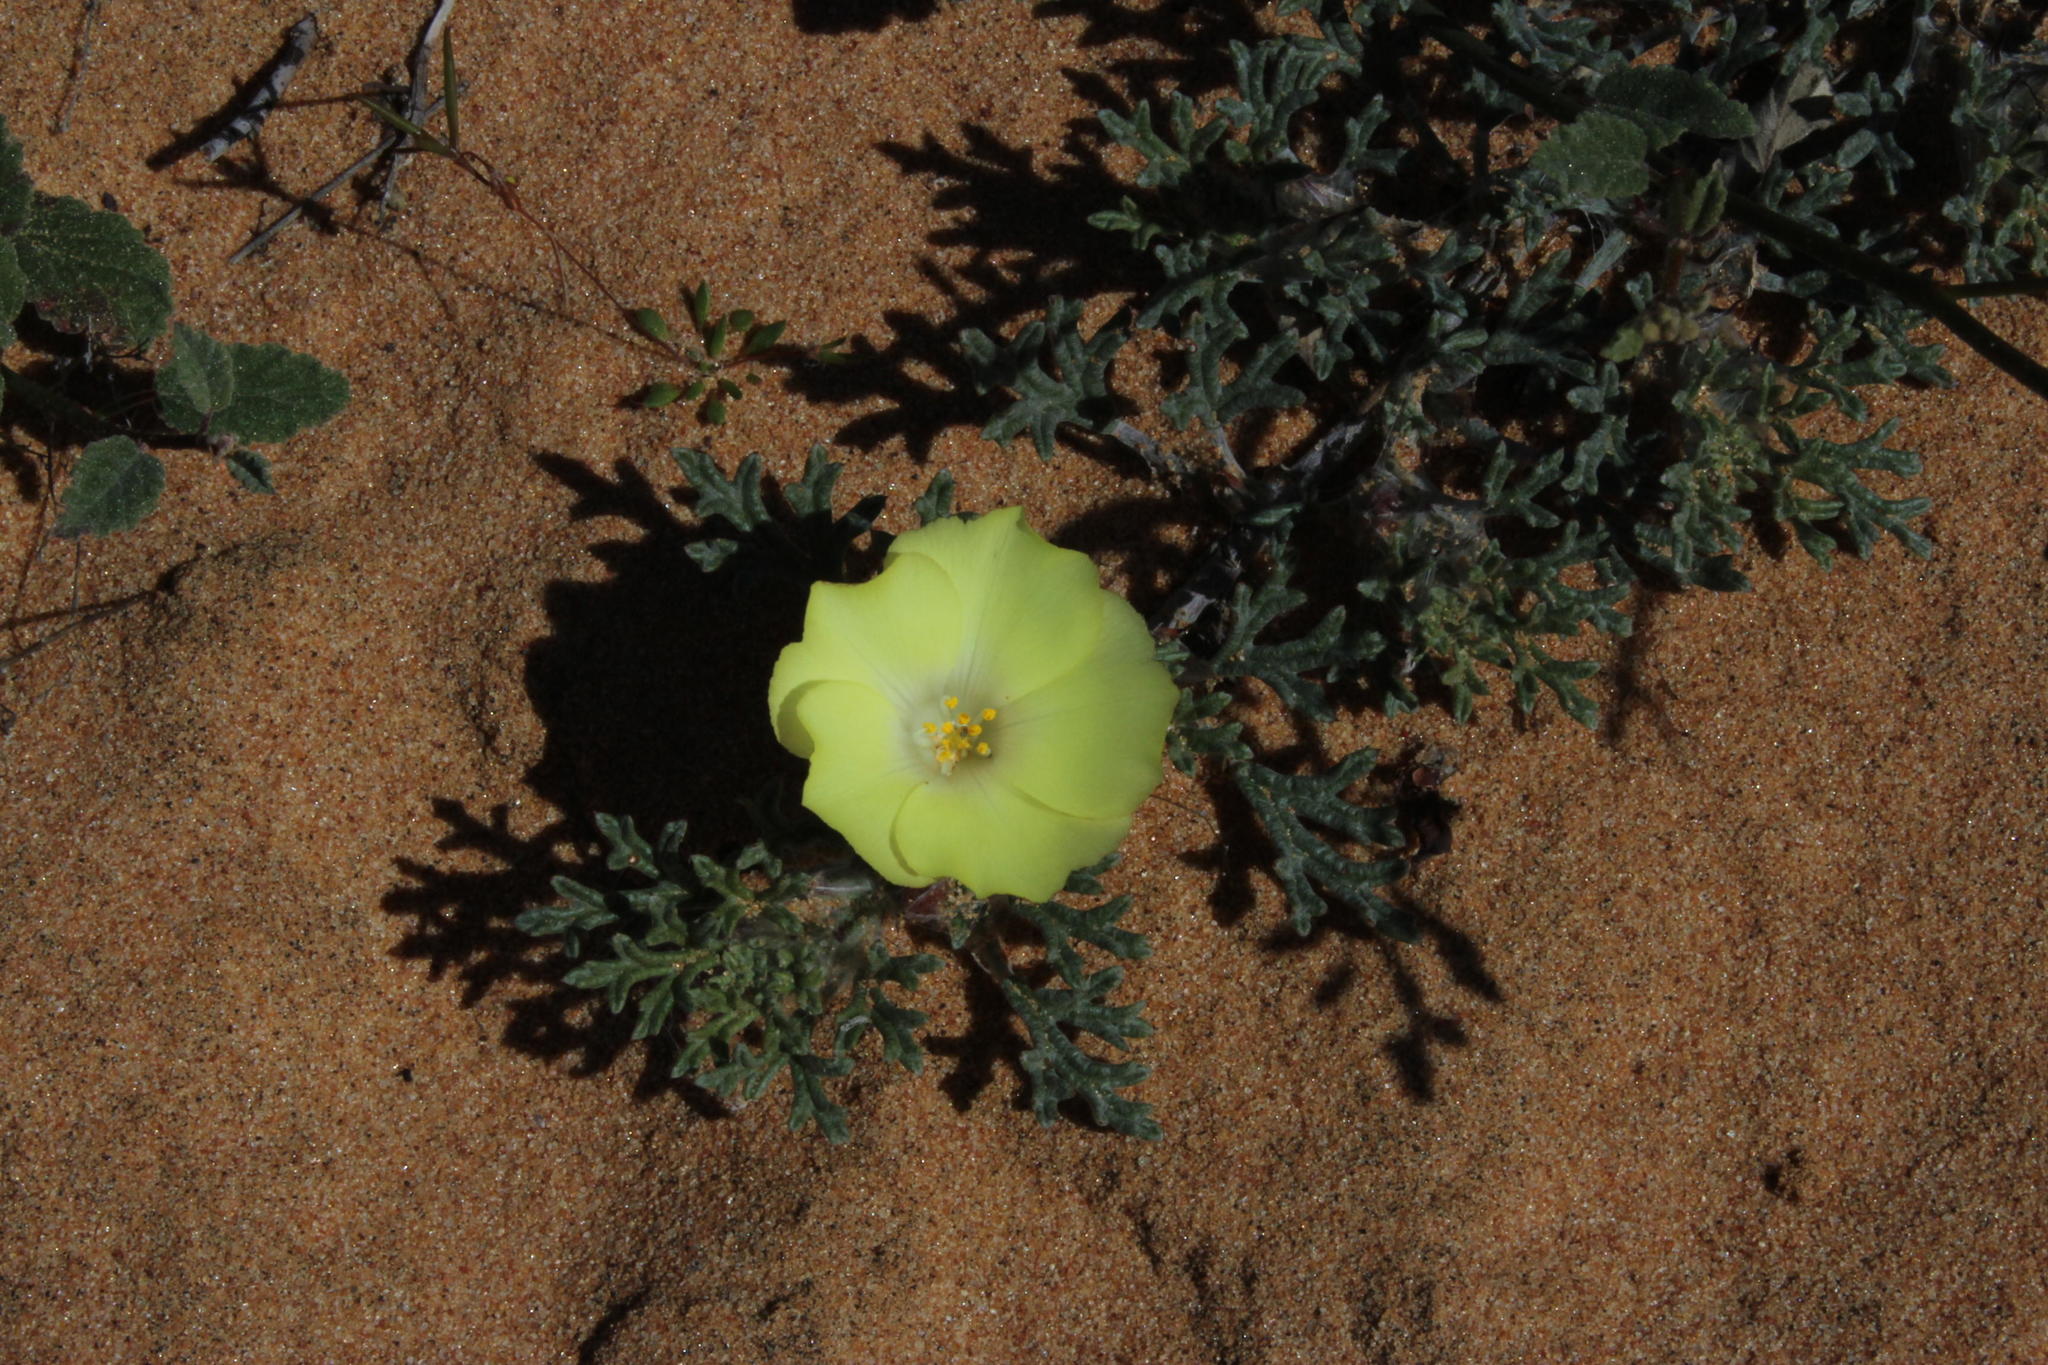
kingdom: Plantae
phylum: Tracheophyta
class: Magnoliopsida
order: Malvales
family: Neuradaceae
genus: Grielum
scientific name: Grielum humifusum
